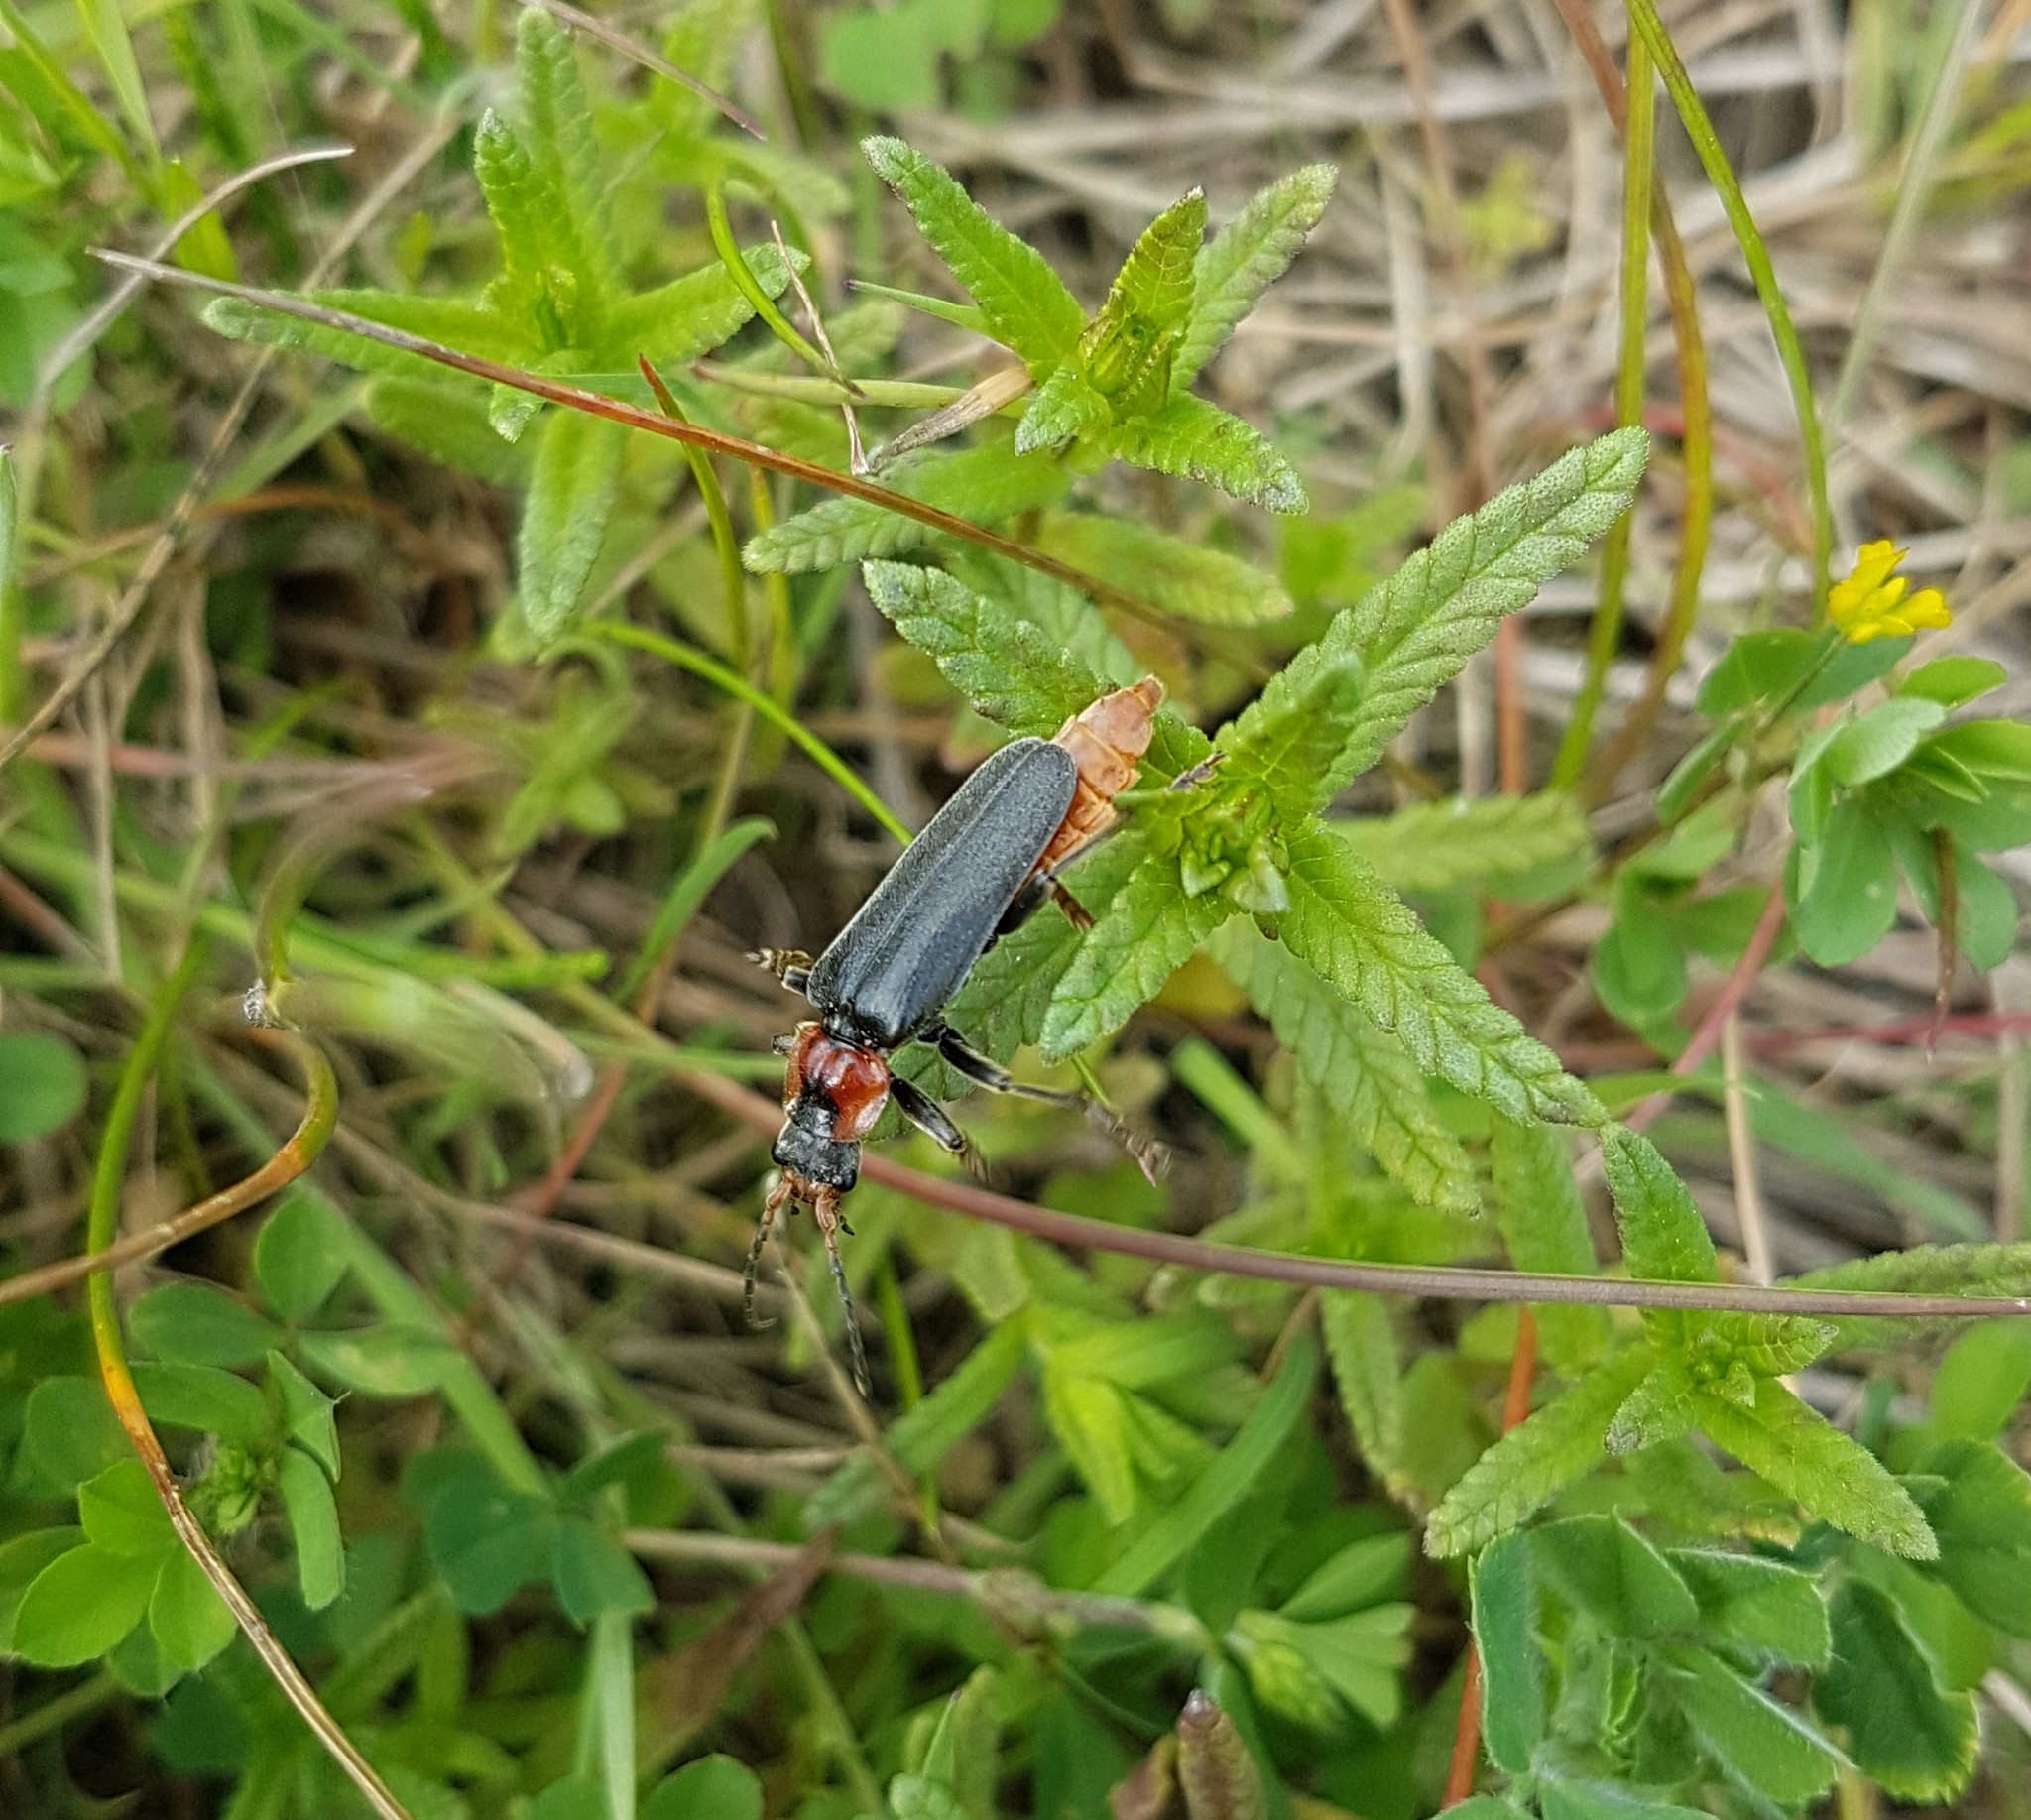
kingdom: Animalia
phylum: Arthropoda
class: Insecta
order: Coleoptera
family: Cantharidae
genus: Cantharis
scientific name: Cantharis fusca
